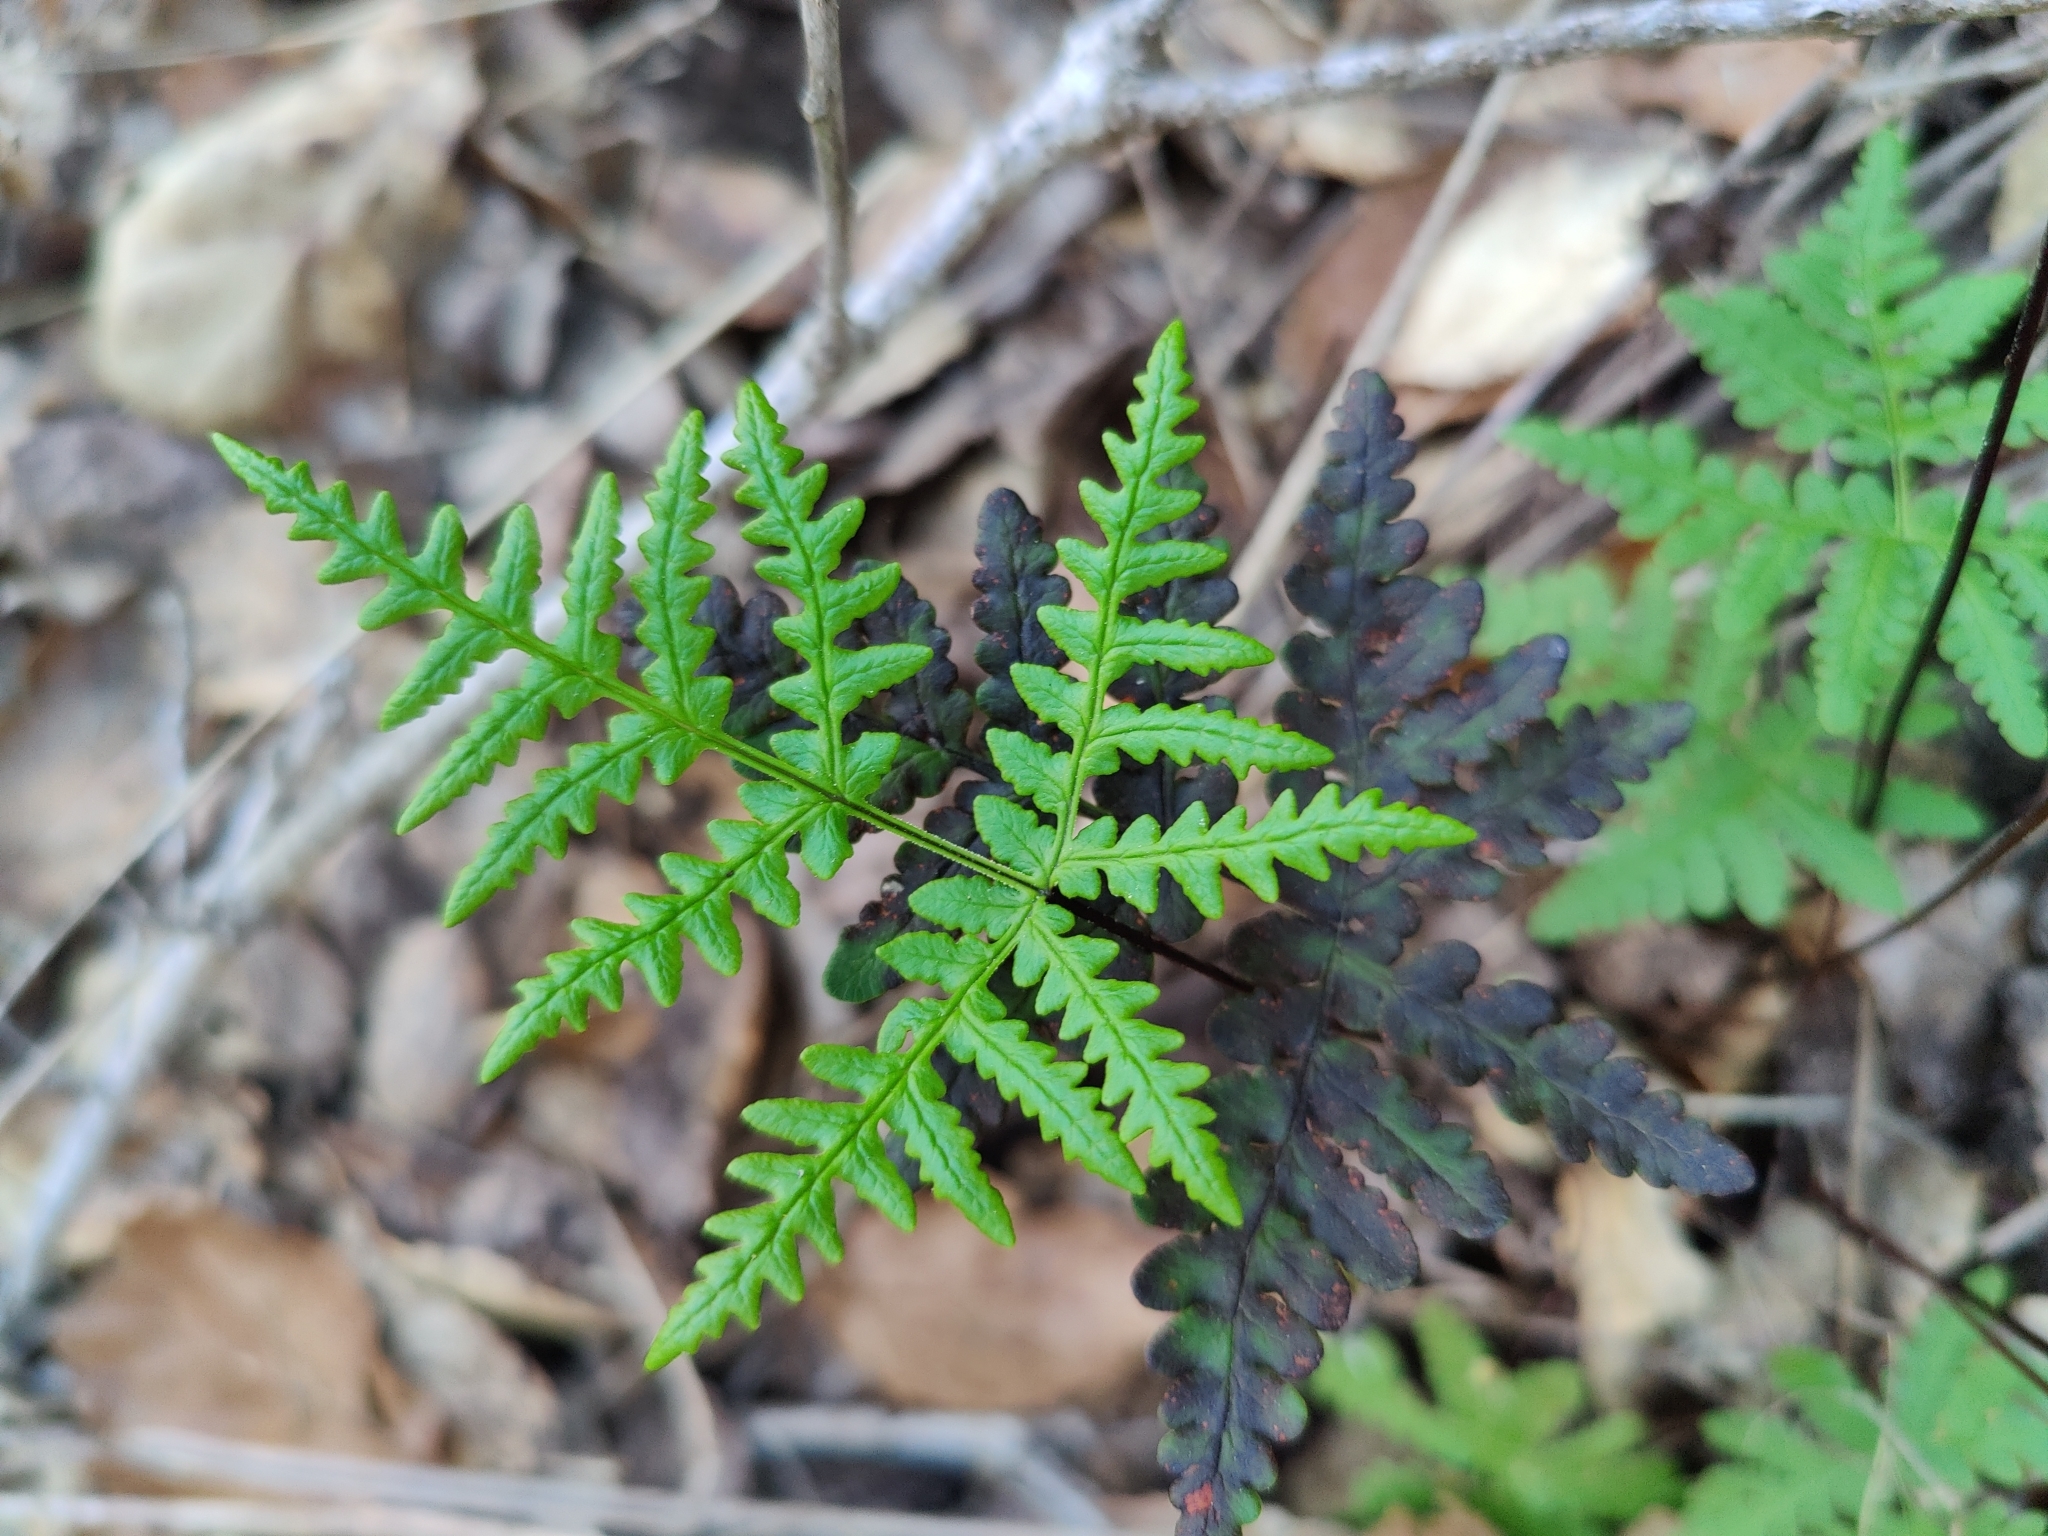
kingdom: Plantae
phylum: Tracheophyta
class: Polypodiopsida
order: Polypodiales
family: Pteridaceae
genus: Pentagramma
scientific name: Pentagramma triangularis
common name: Gold fern
